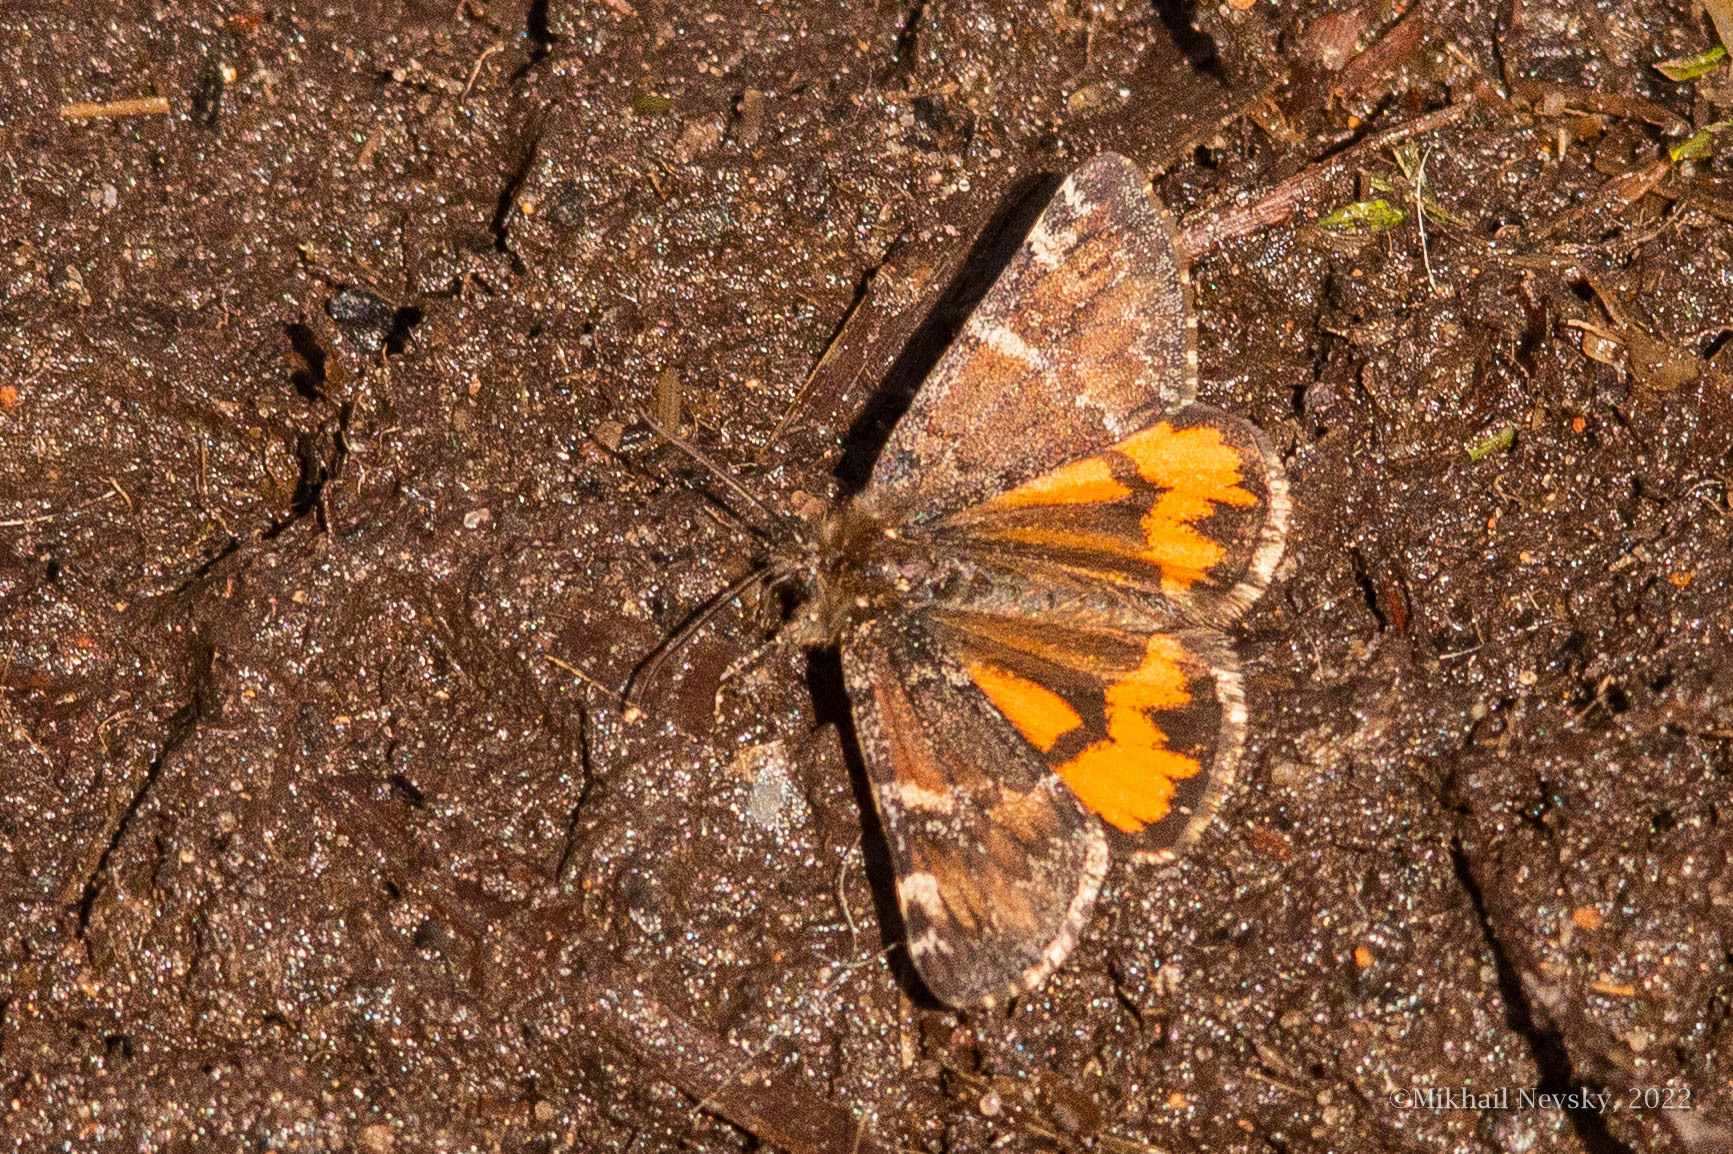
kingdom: Animalia
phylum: Arthropoda
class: Insecta
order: Lepidoptera
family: Geometridae
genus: Archiearis
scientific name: Archiearis parthenias
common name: Orange underwing
